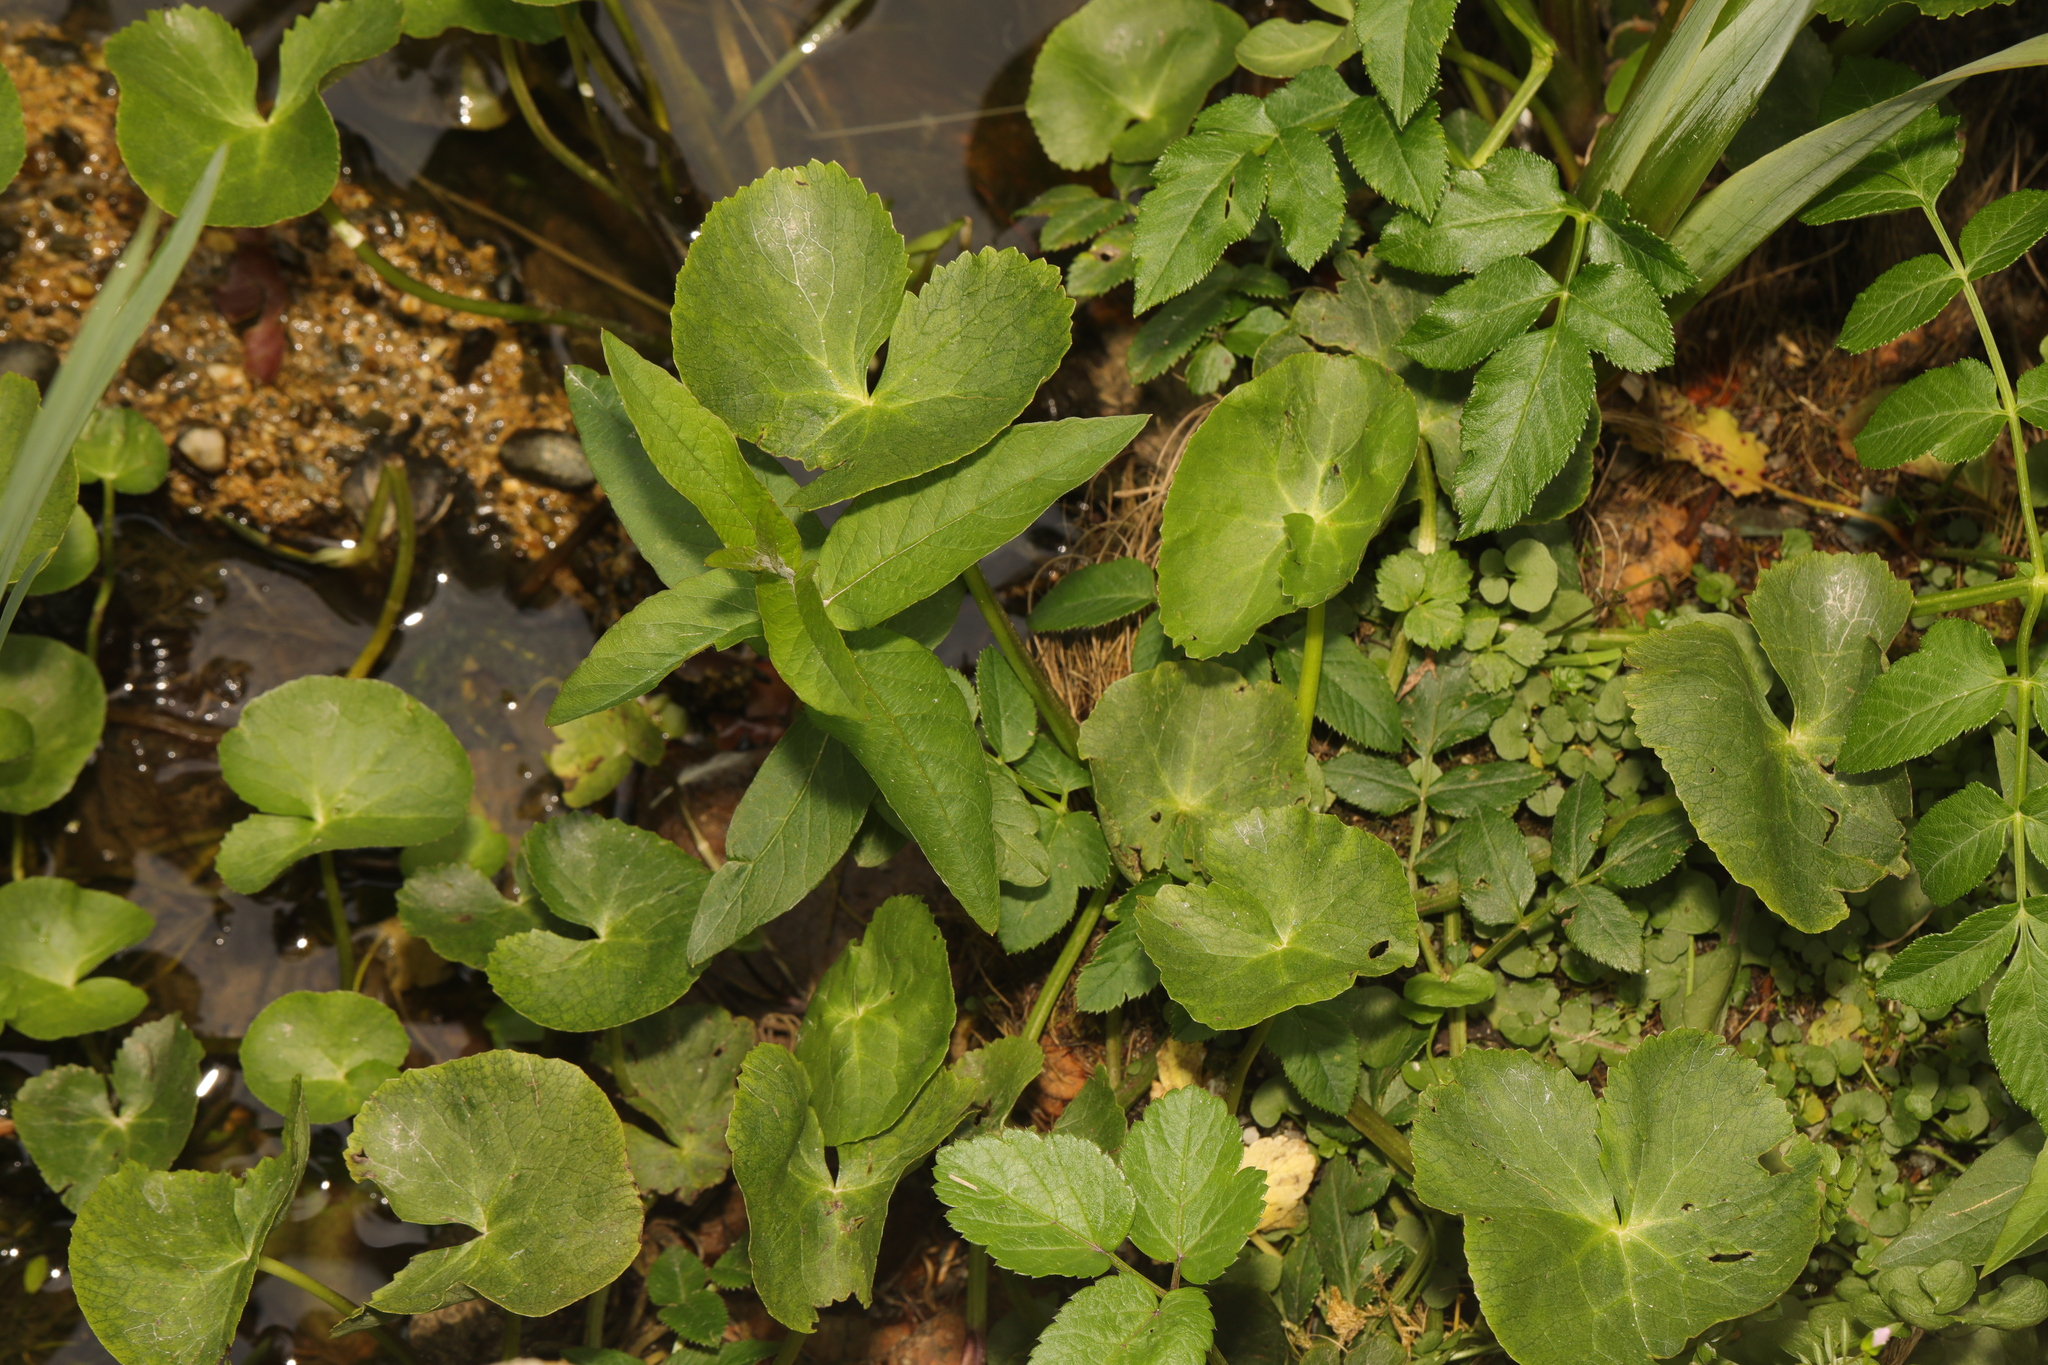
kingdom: Plantae
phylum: Tracheophyta
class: Magnoliopsida
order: Ranunculales
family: Ranunculaceae
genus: Caltha
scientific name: Caltha palustris
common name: Marsh marigold
